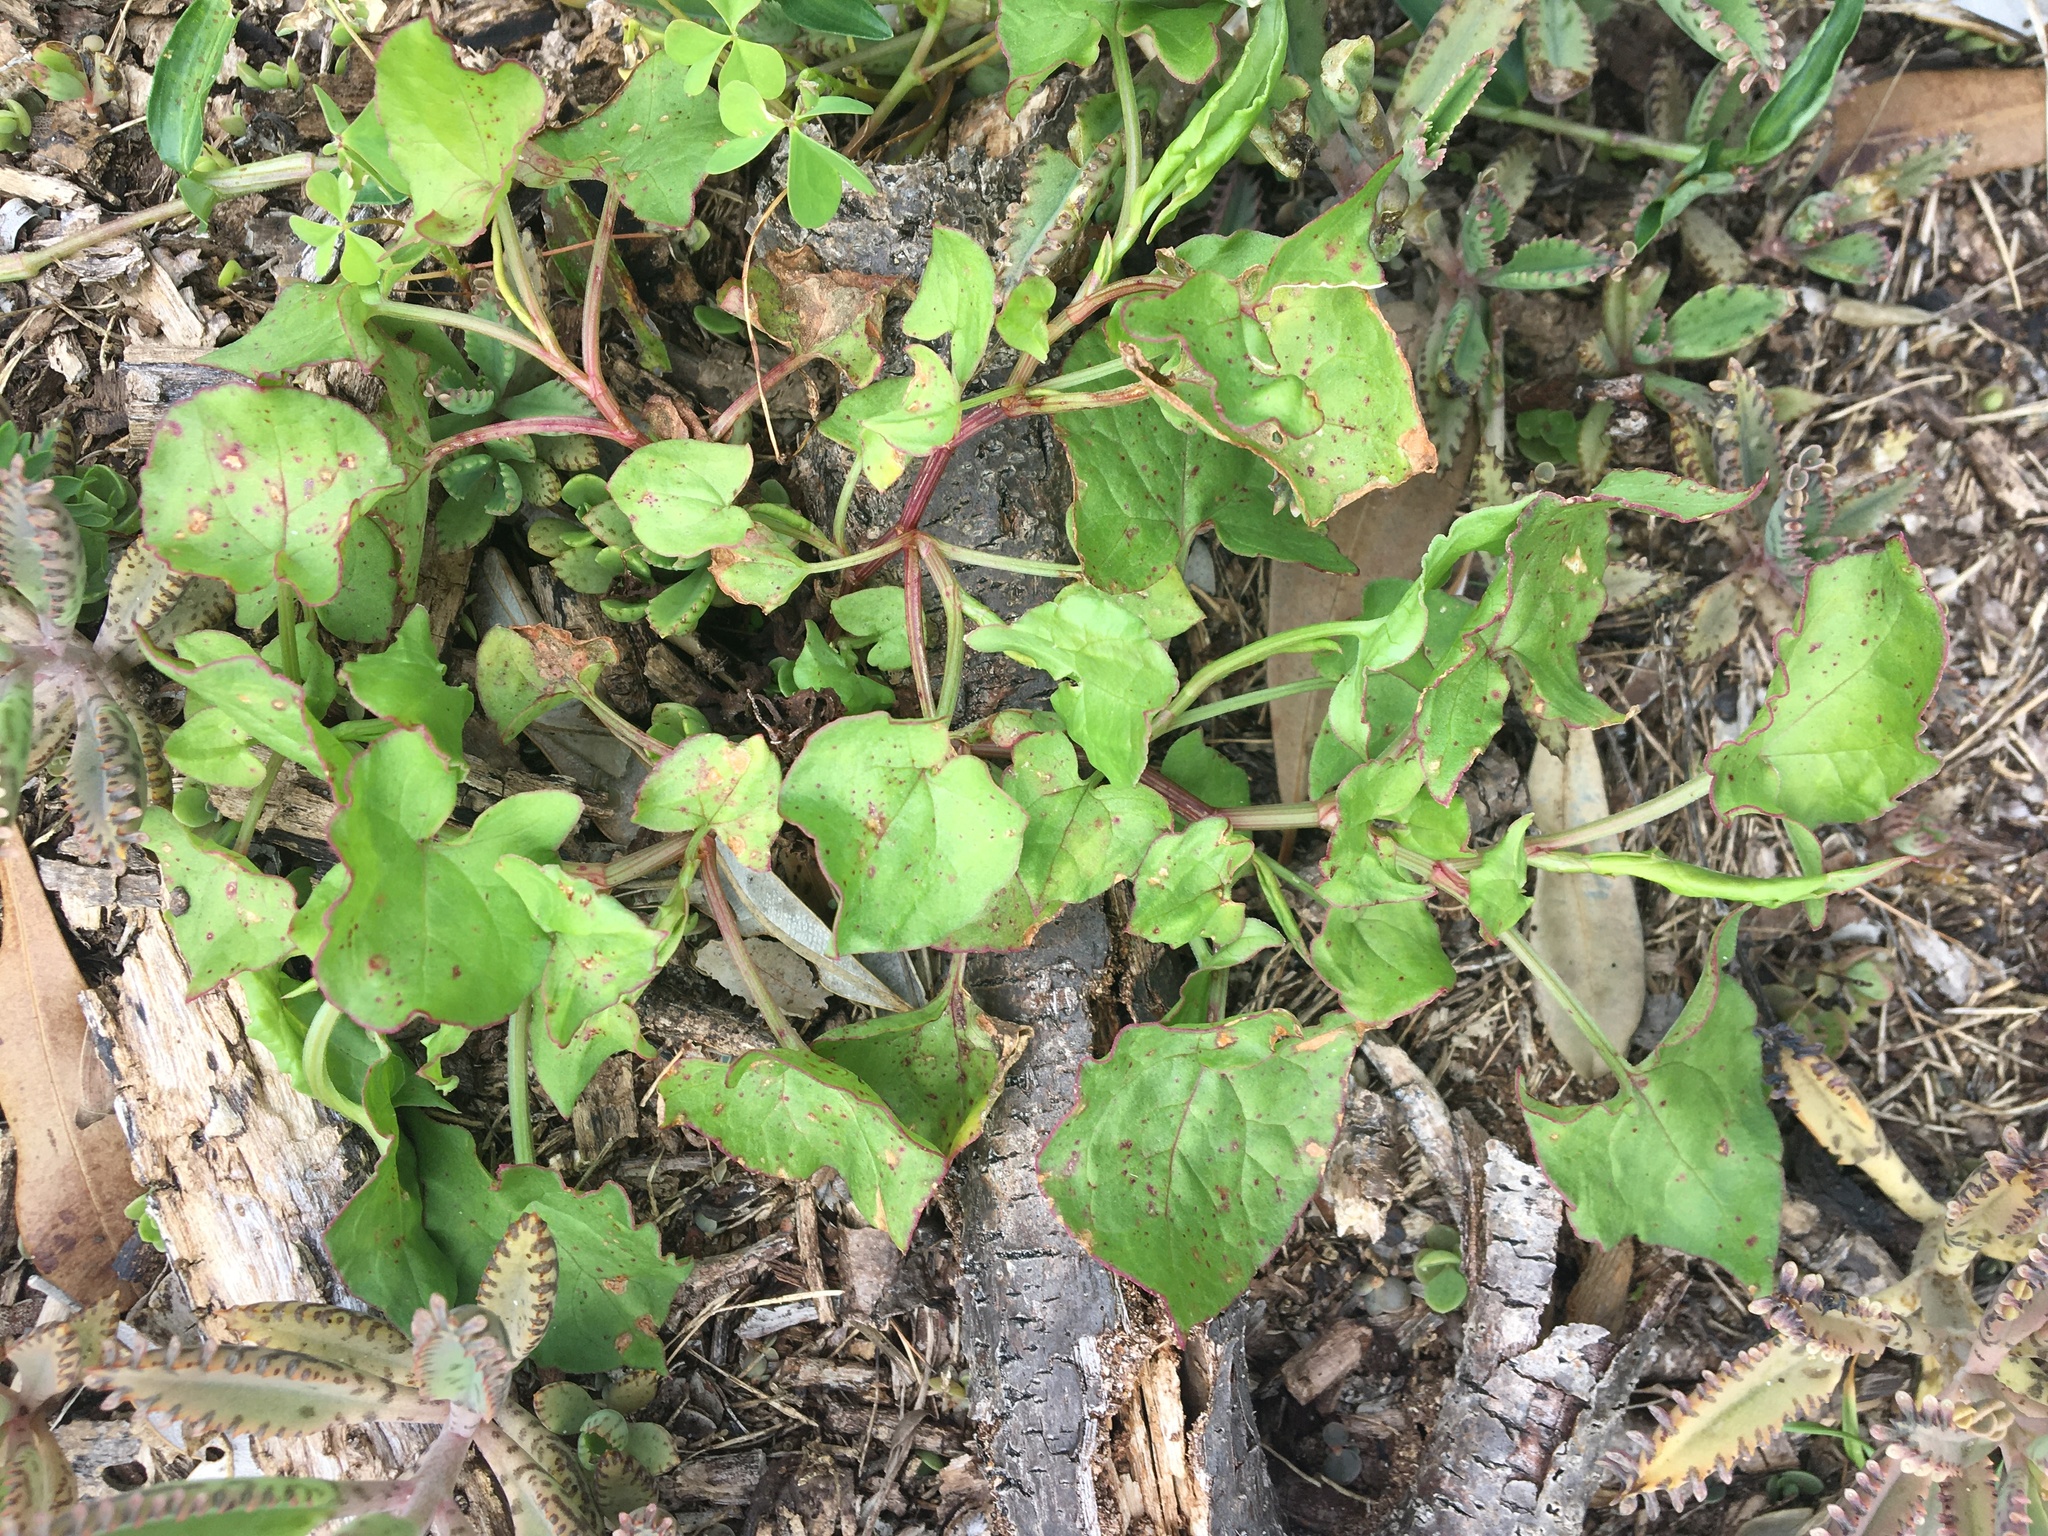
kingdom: Plantae
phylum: Tracheophyta
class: Magnoliopsida
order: Caryophyllales
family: Polygonaceae
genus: Rumex
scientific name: Rumex sagittatus
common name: Climbing dock
